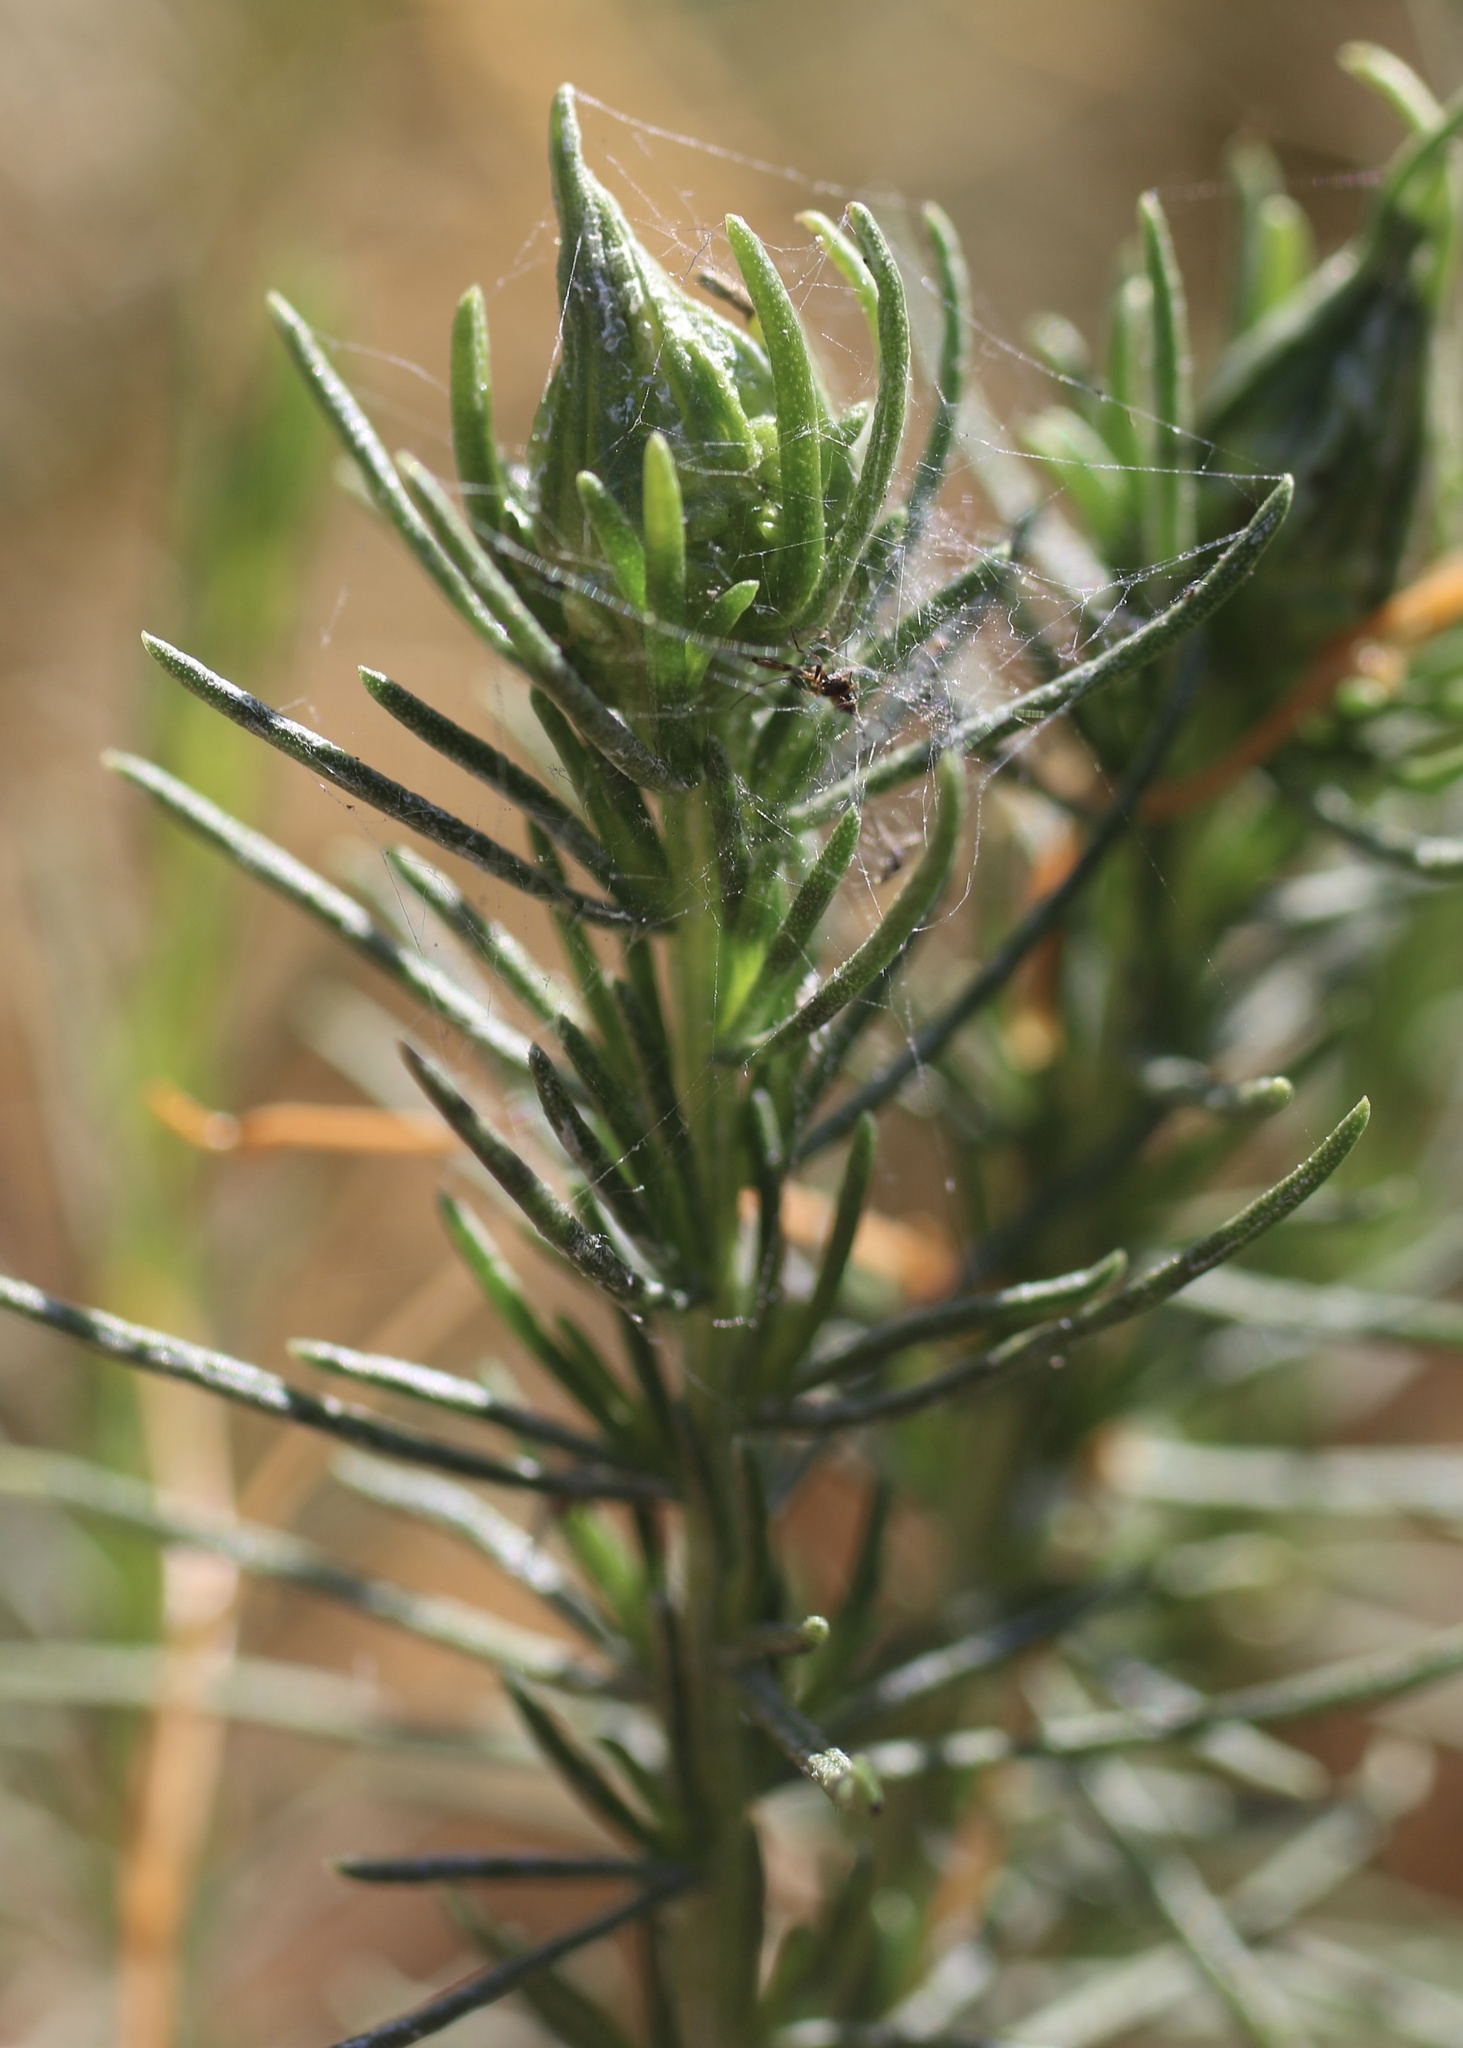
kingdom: Animalia
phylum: Arthropoda
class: Insecta
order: Lepidoptera
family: Gelechiidae
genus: Gnorimoschema
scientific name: Gnorimoschema octomaculella
